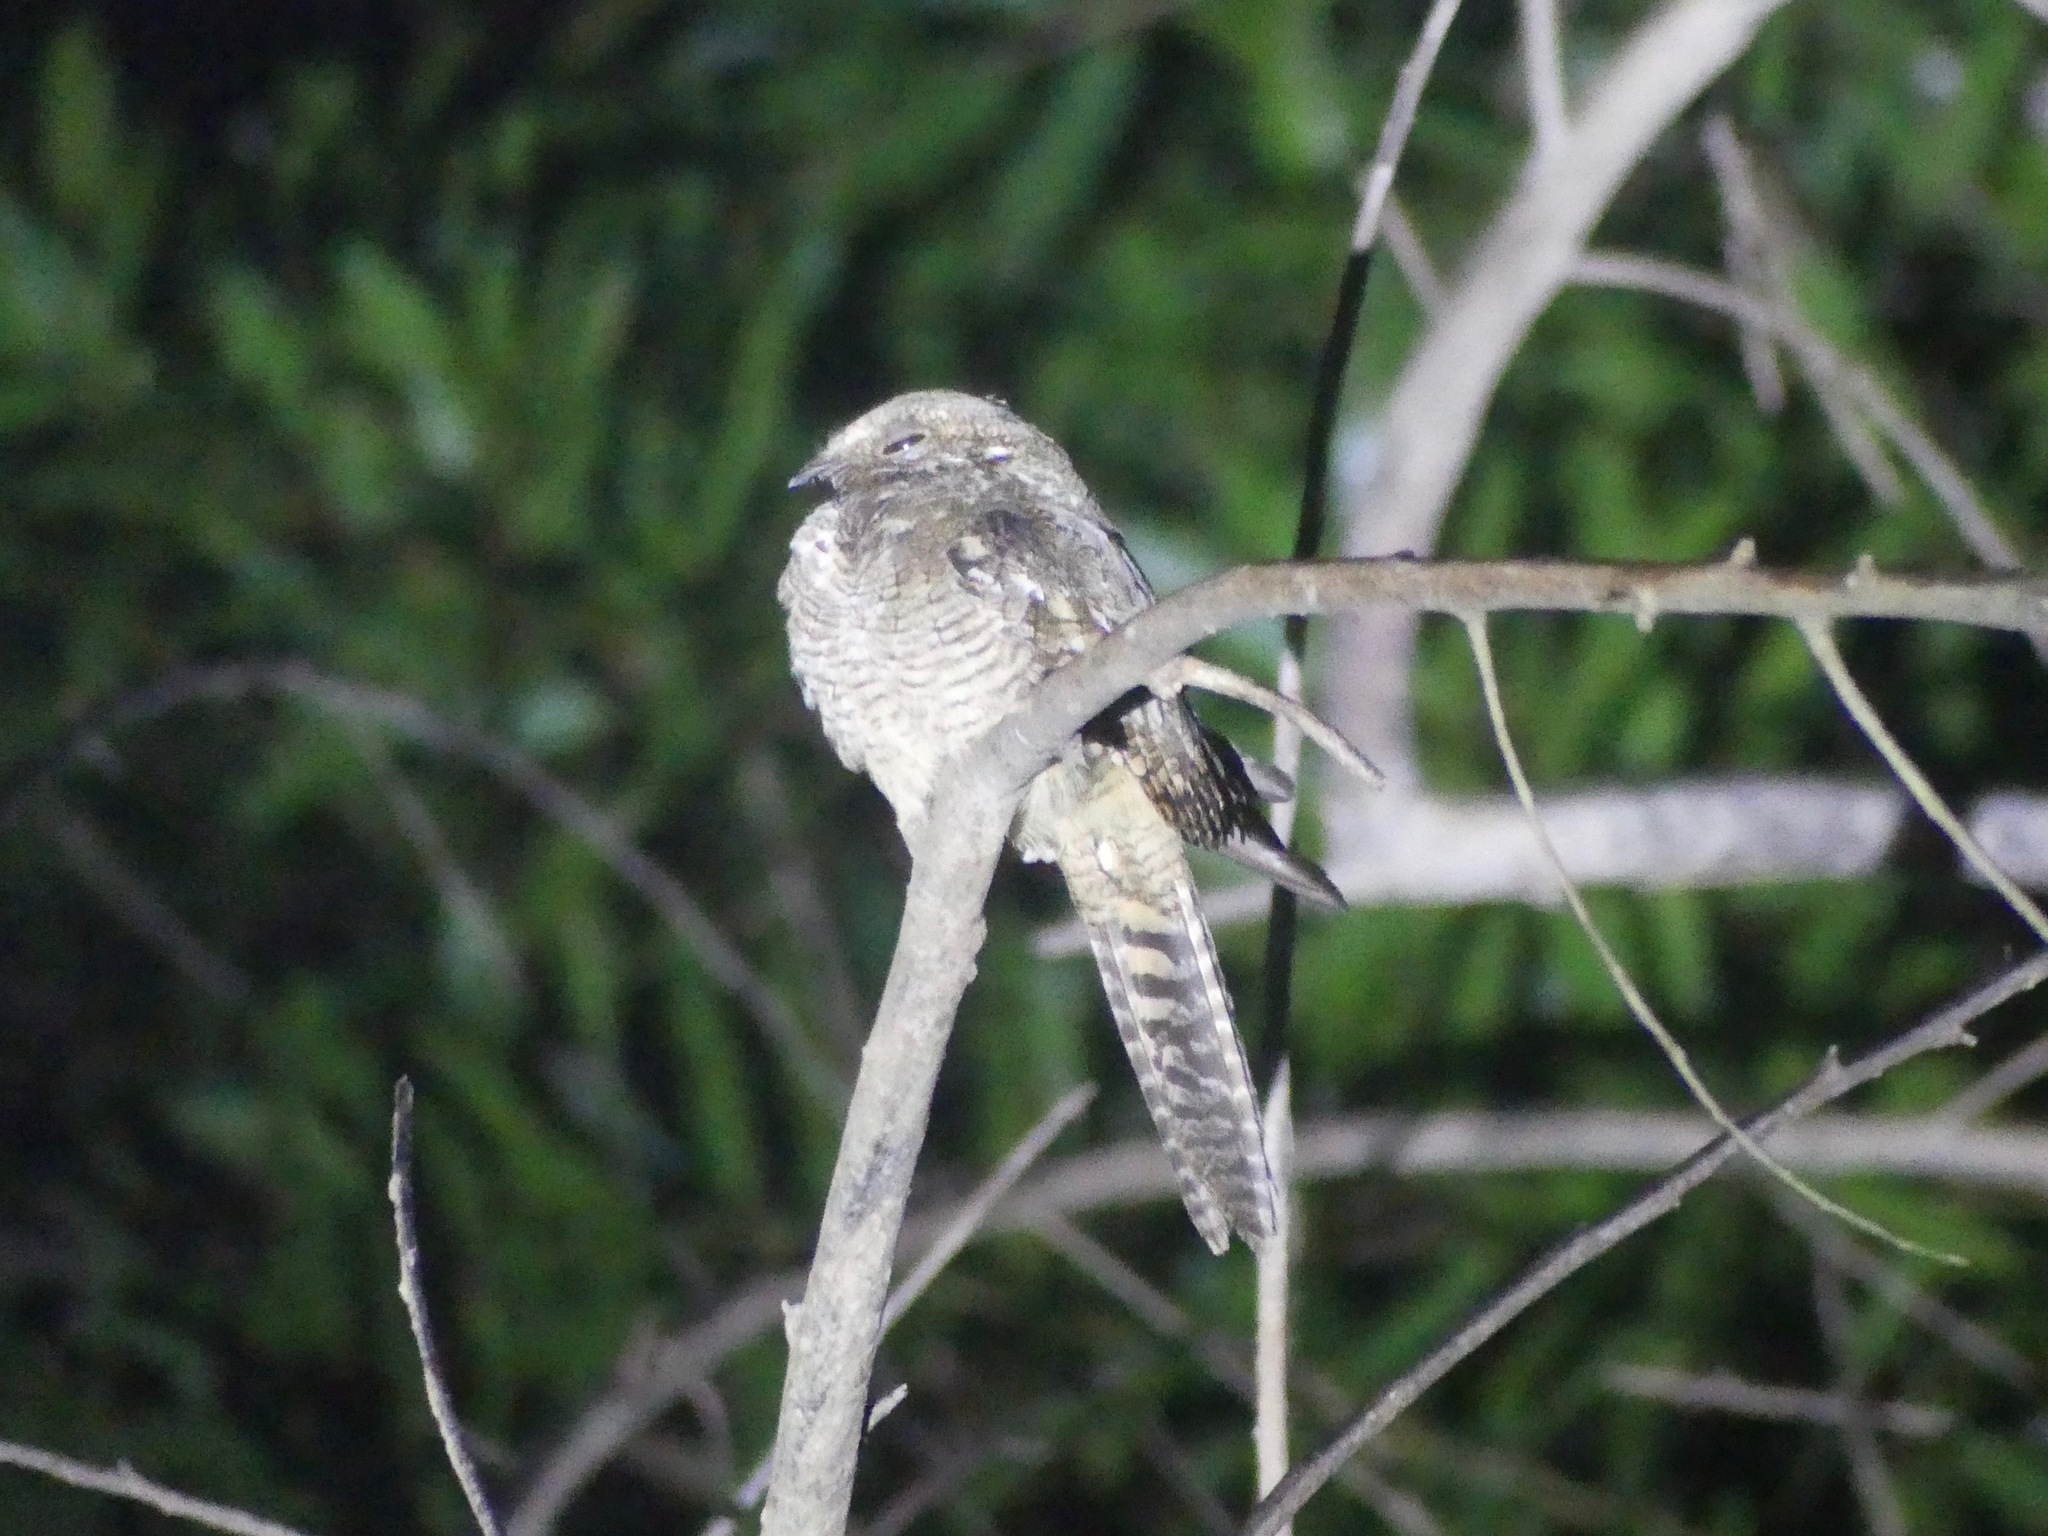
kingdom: Animalia
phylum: Chordata
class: Aves
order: Caprimulgiformes
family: Caprimulgidae
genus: Hydropsalis
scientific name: Hydropsalis climacocerca
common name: Ladder-tailed nightjar
